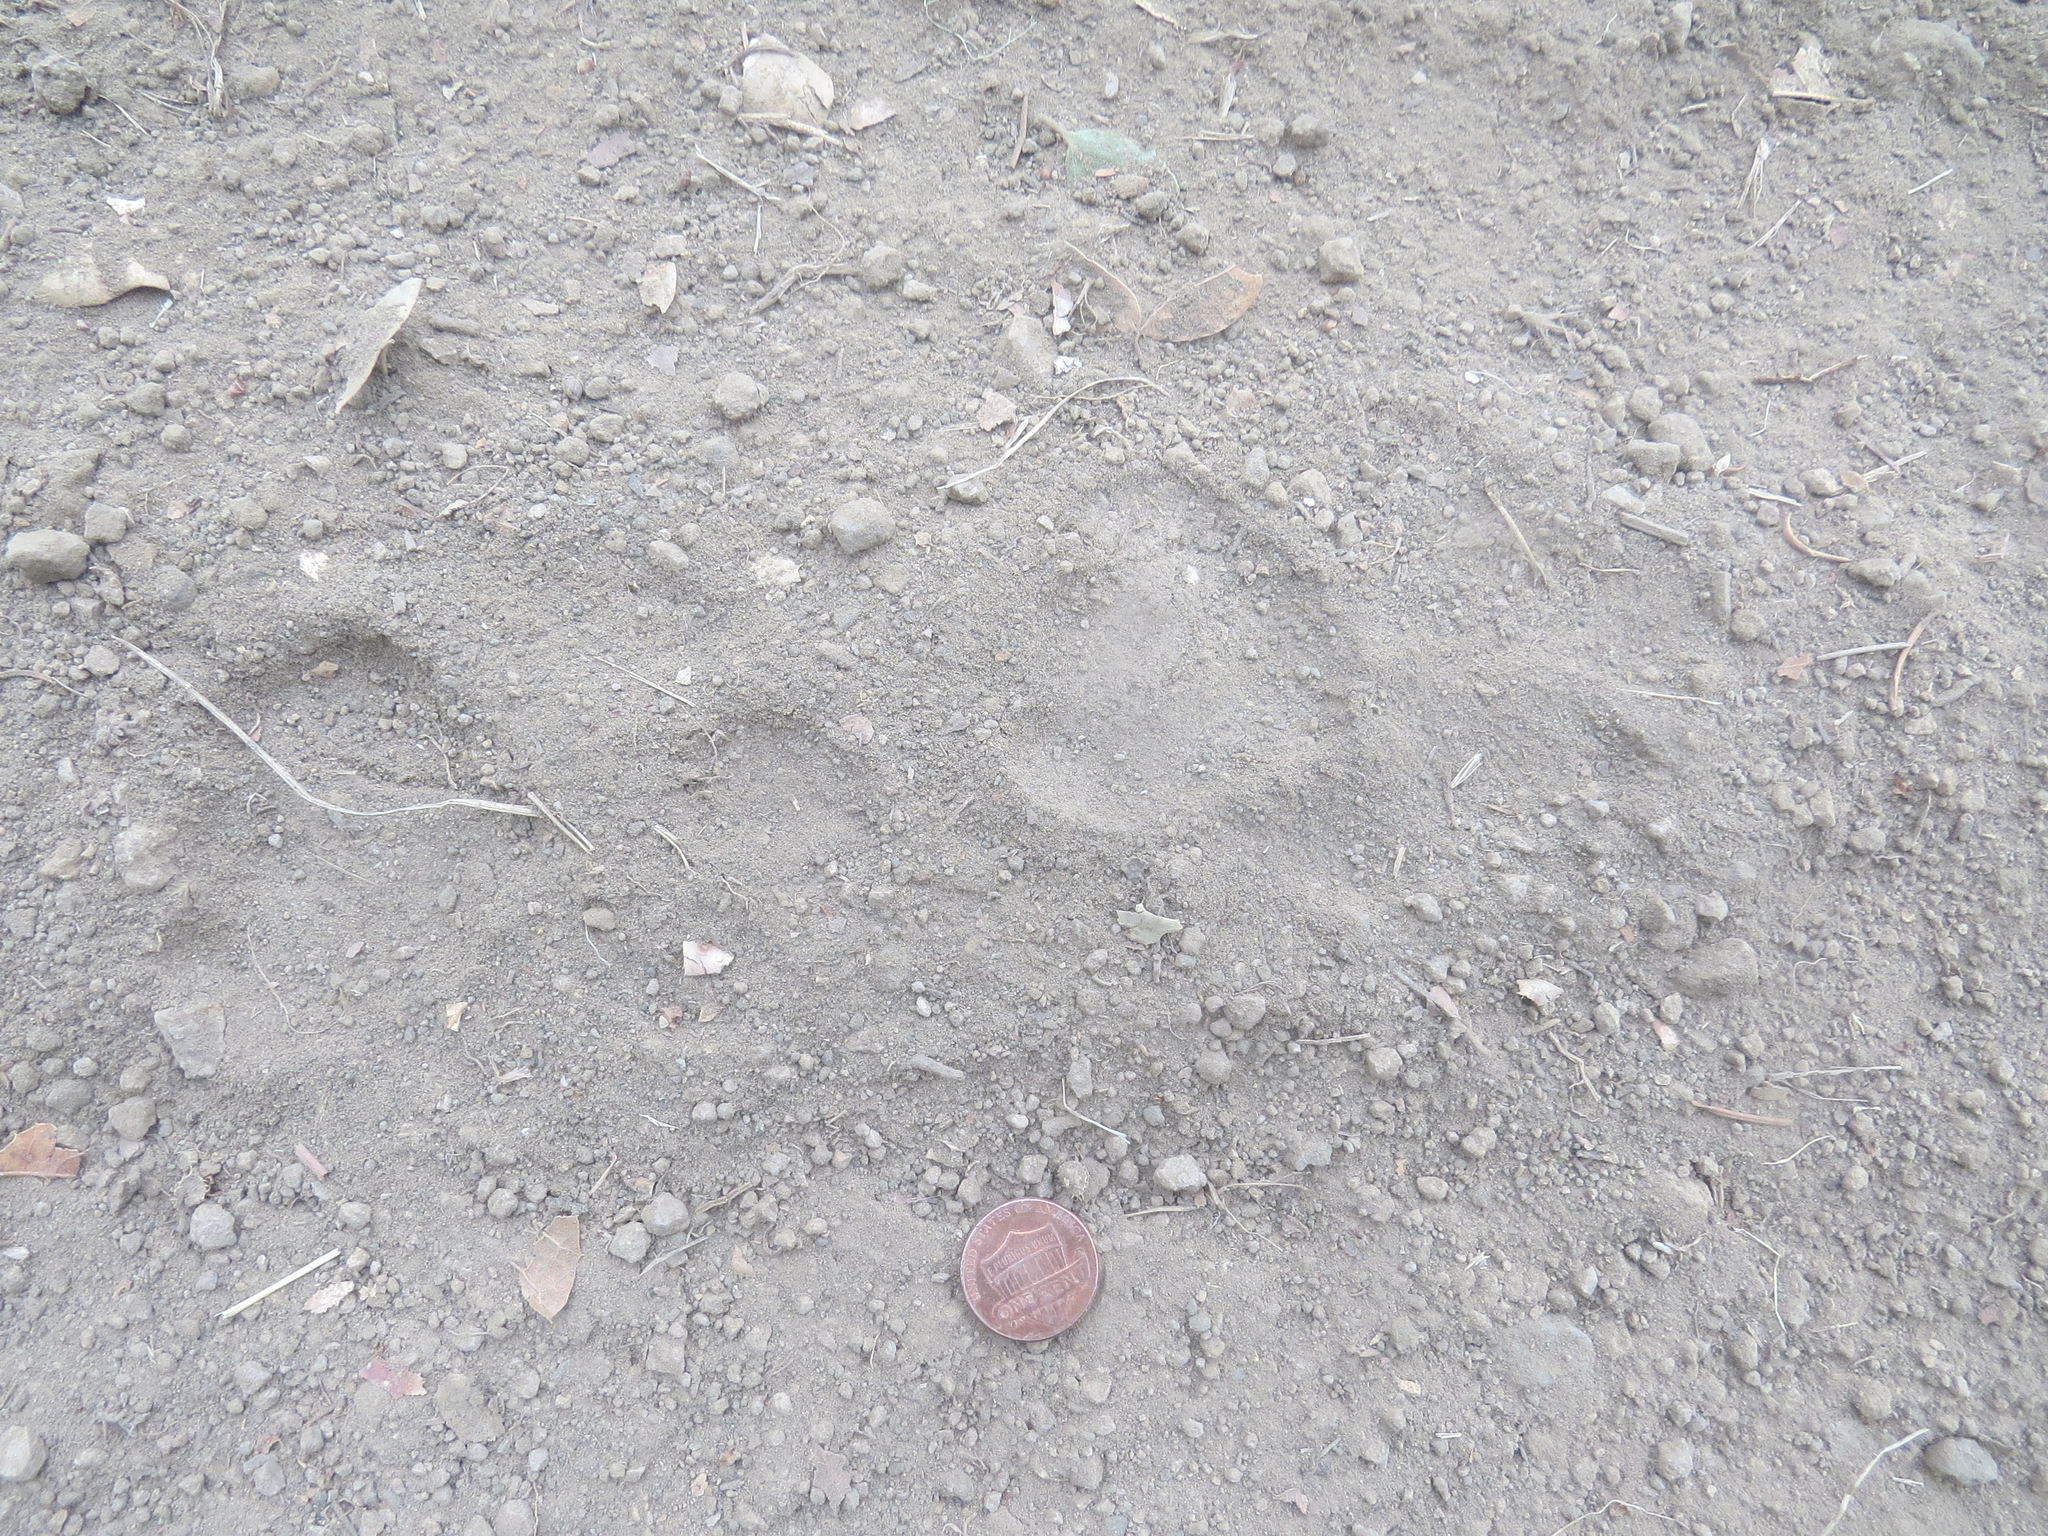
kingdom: Animalia
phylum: Chordata
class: Mammalia
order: Carnivora
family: Felidae
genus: Puma
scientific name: Puma concolor
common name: Puma
